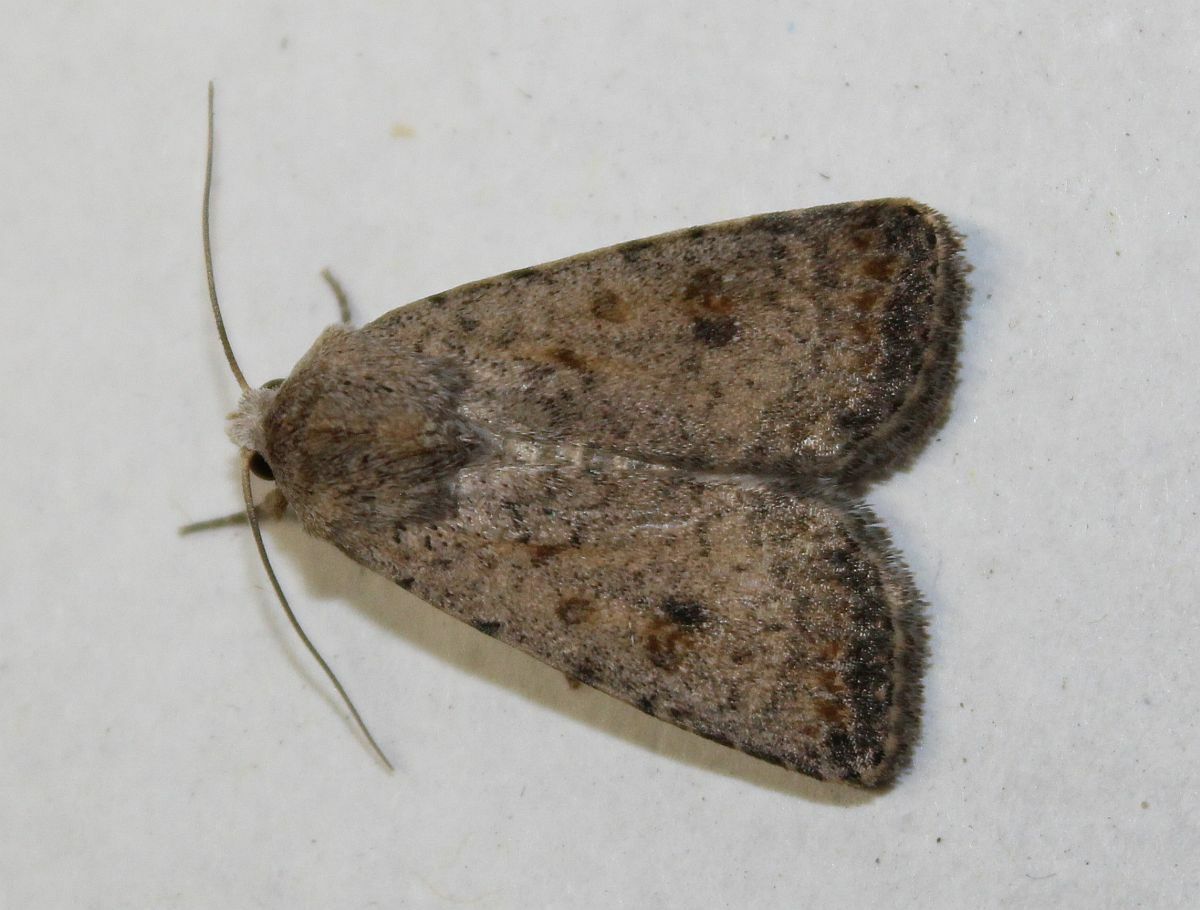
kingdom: Animalia
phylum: Arthropoda
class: Insecta
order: Lepidoptera
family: Noctuidae
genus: Caradrina
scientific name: Caradrina clavipalpis
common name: Pale mottled willow
